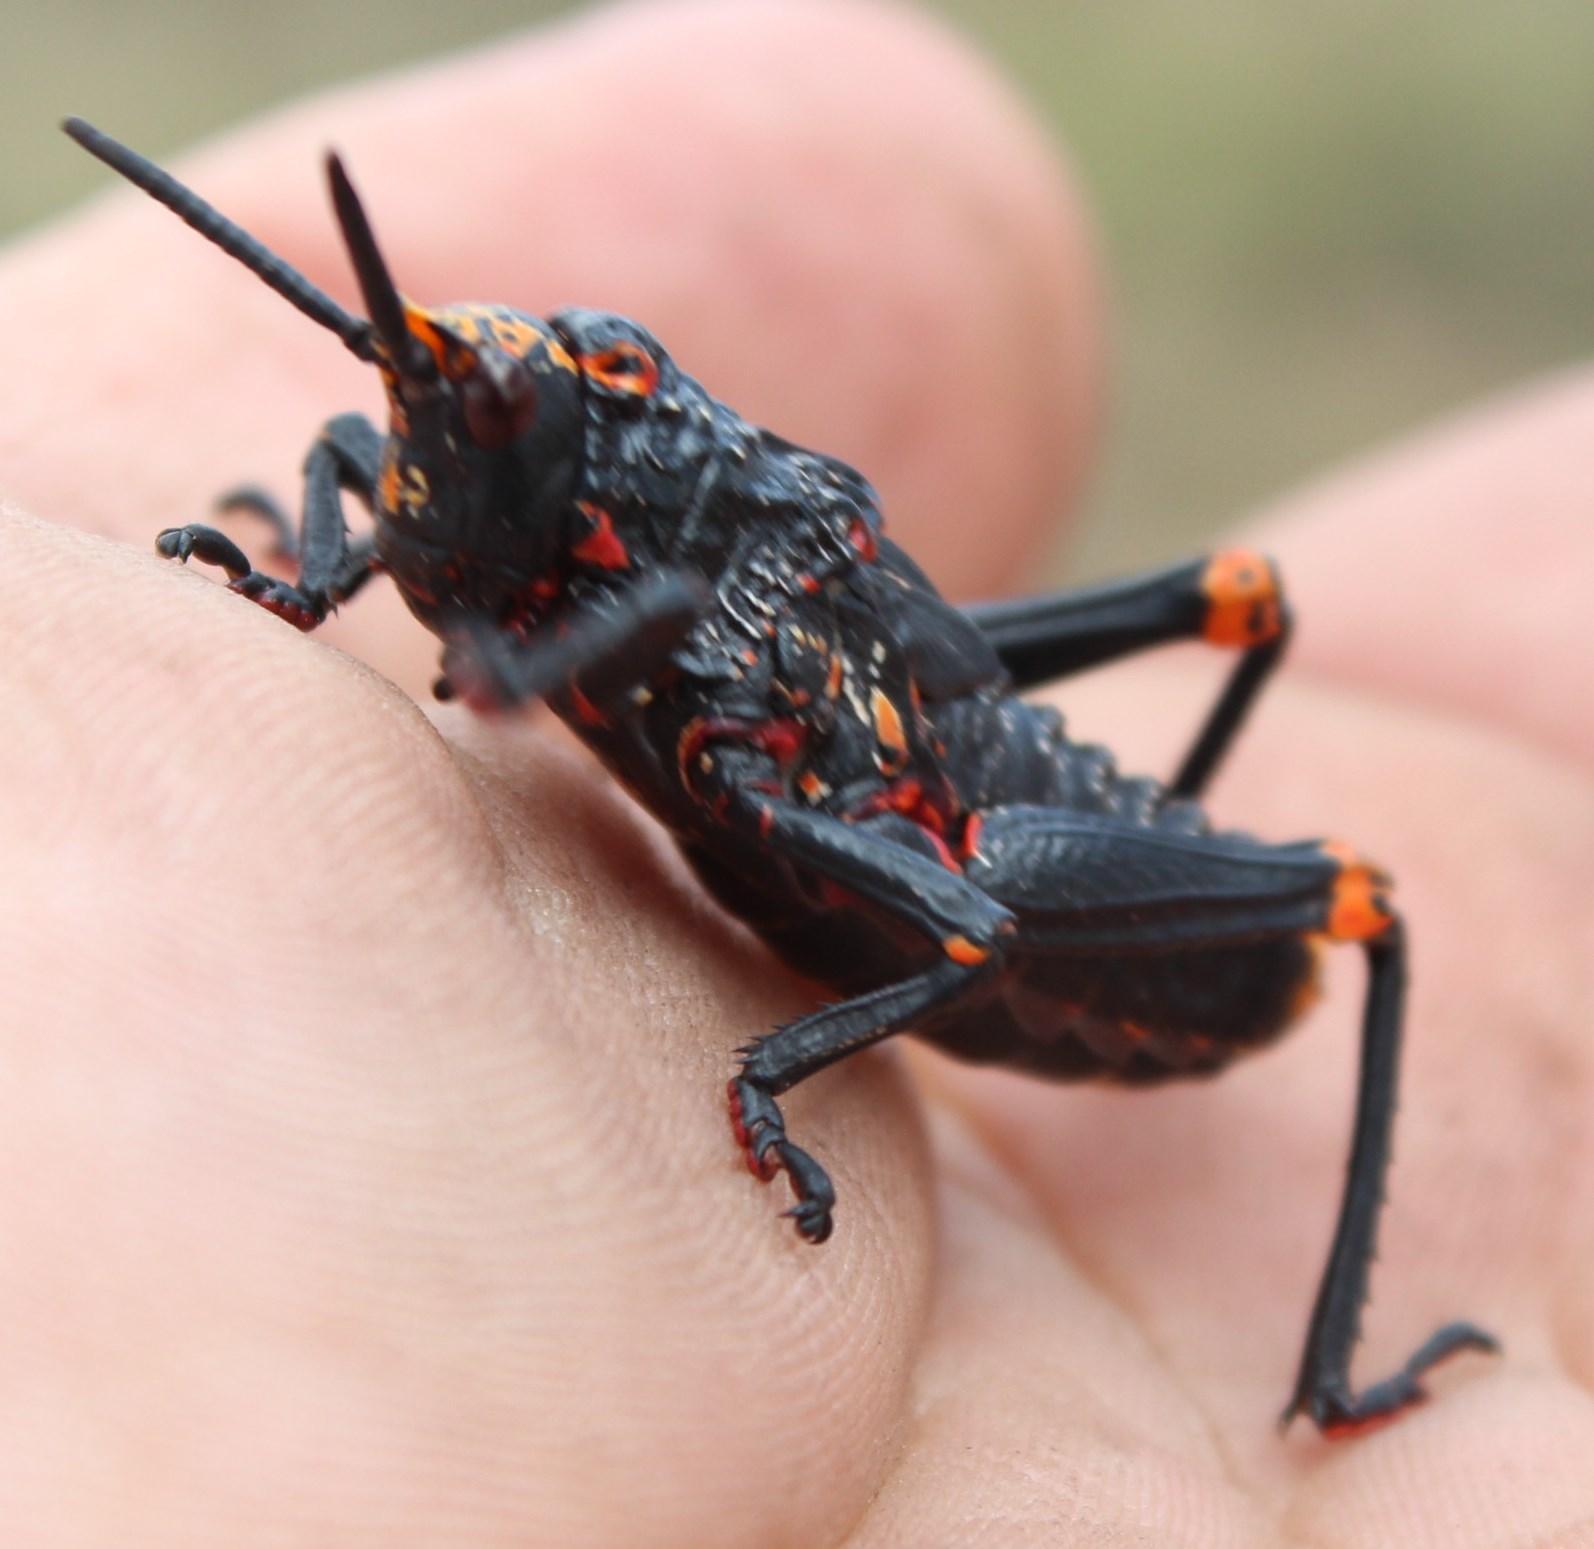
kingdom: Animalia
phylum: Arthropoda
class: Insecta
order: Orthoptera
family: Pyrgomorphidae
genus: Dictyophorus
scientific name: Dictyophorus spumans
